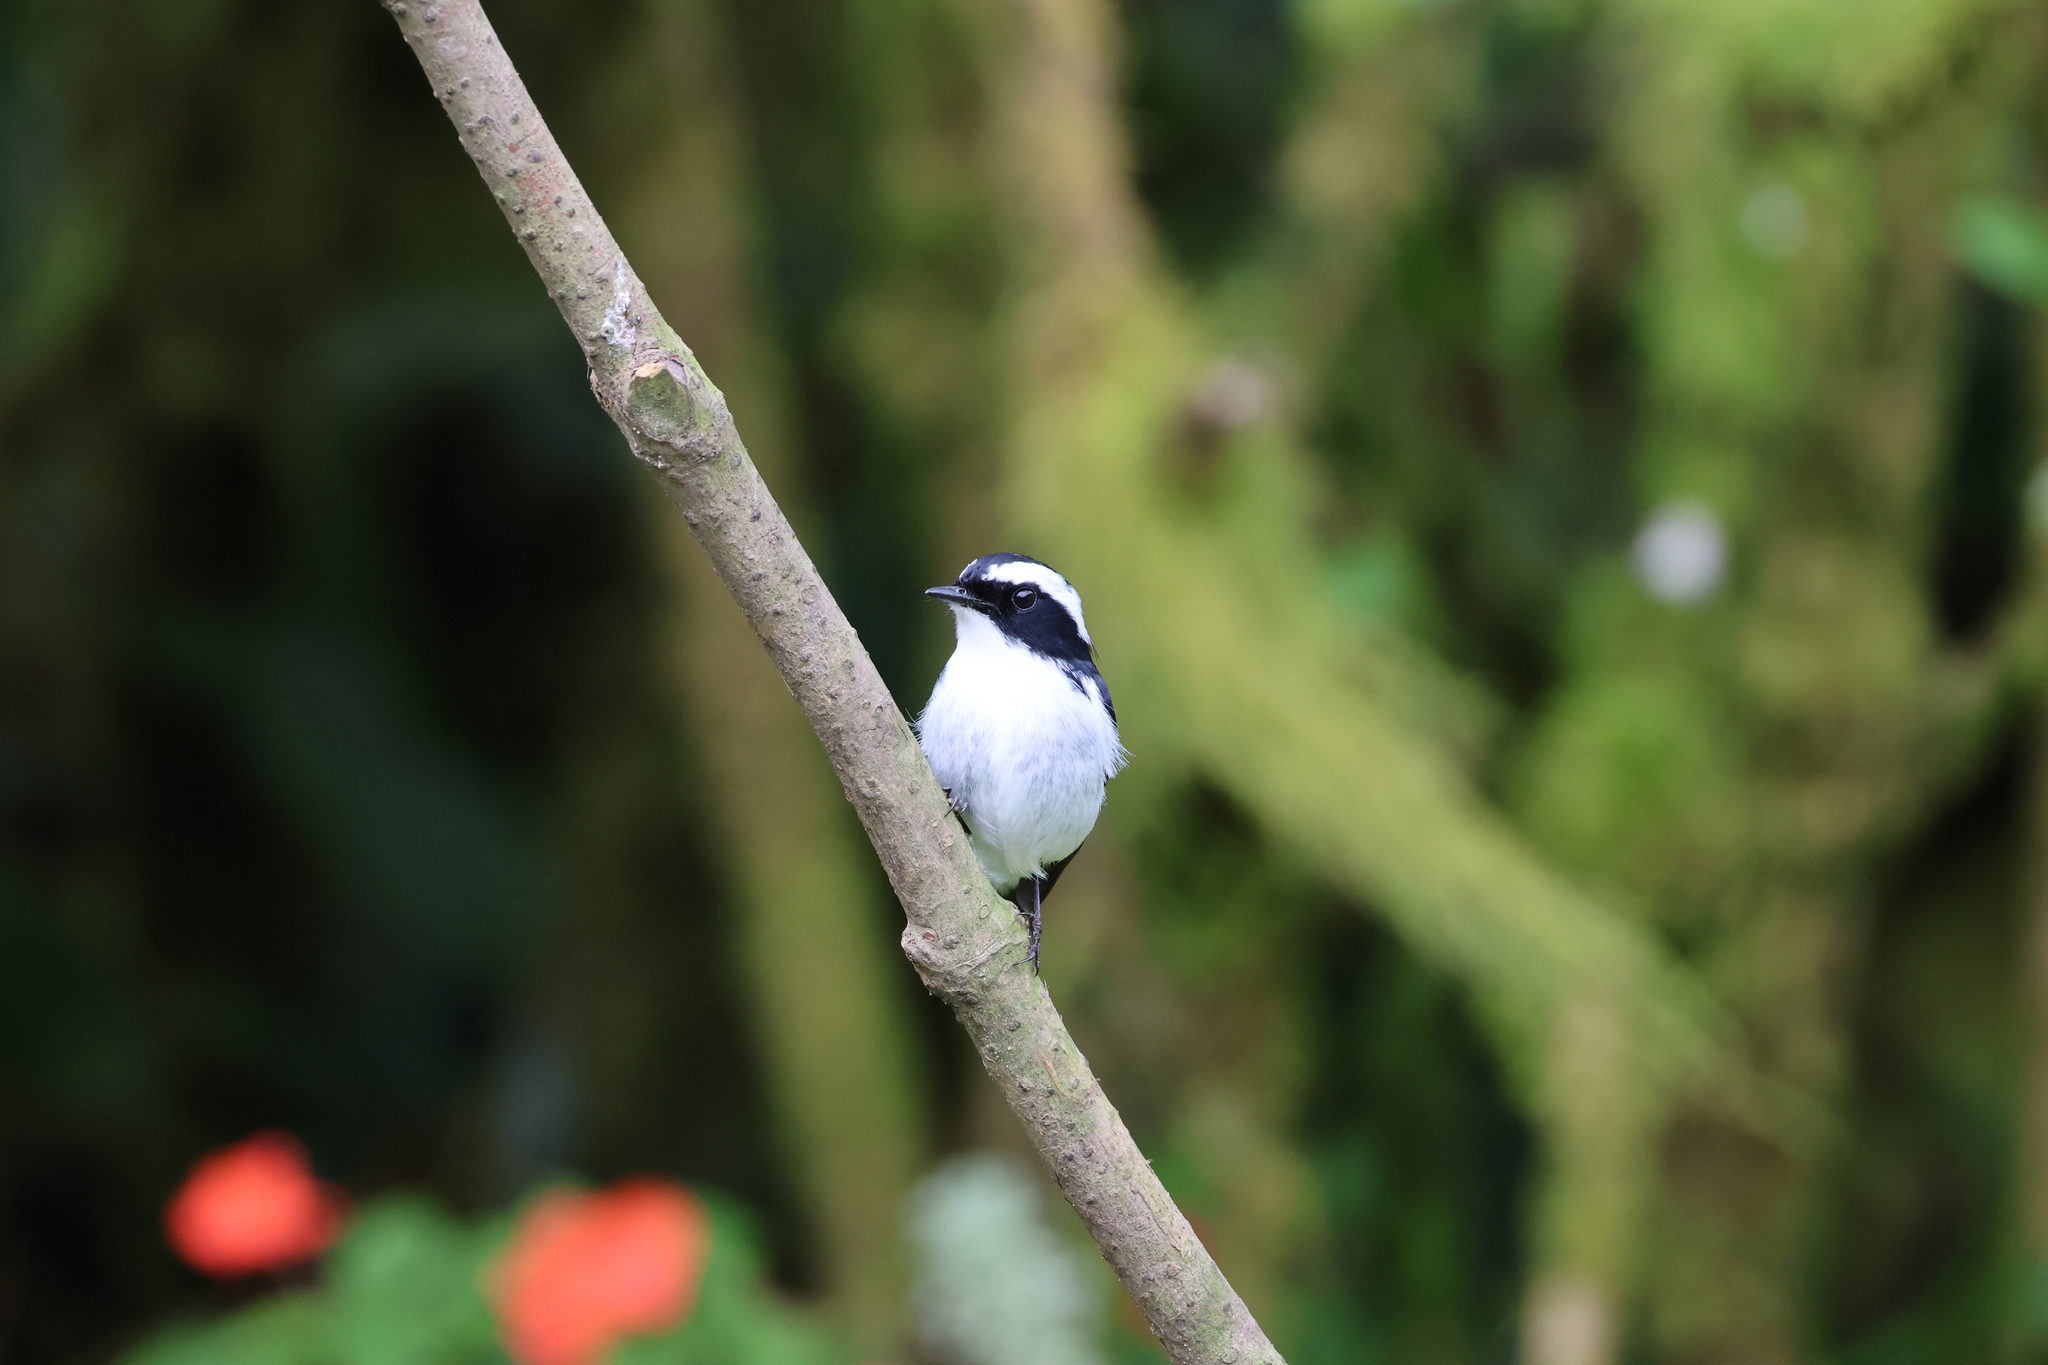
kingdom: Animalia
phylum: Chordata
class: Aves
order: Passeriformes
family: Muscicapidae
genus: Ficedula
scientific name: Ficedula westermanni
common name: Little pied flycatcher
